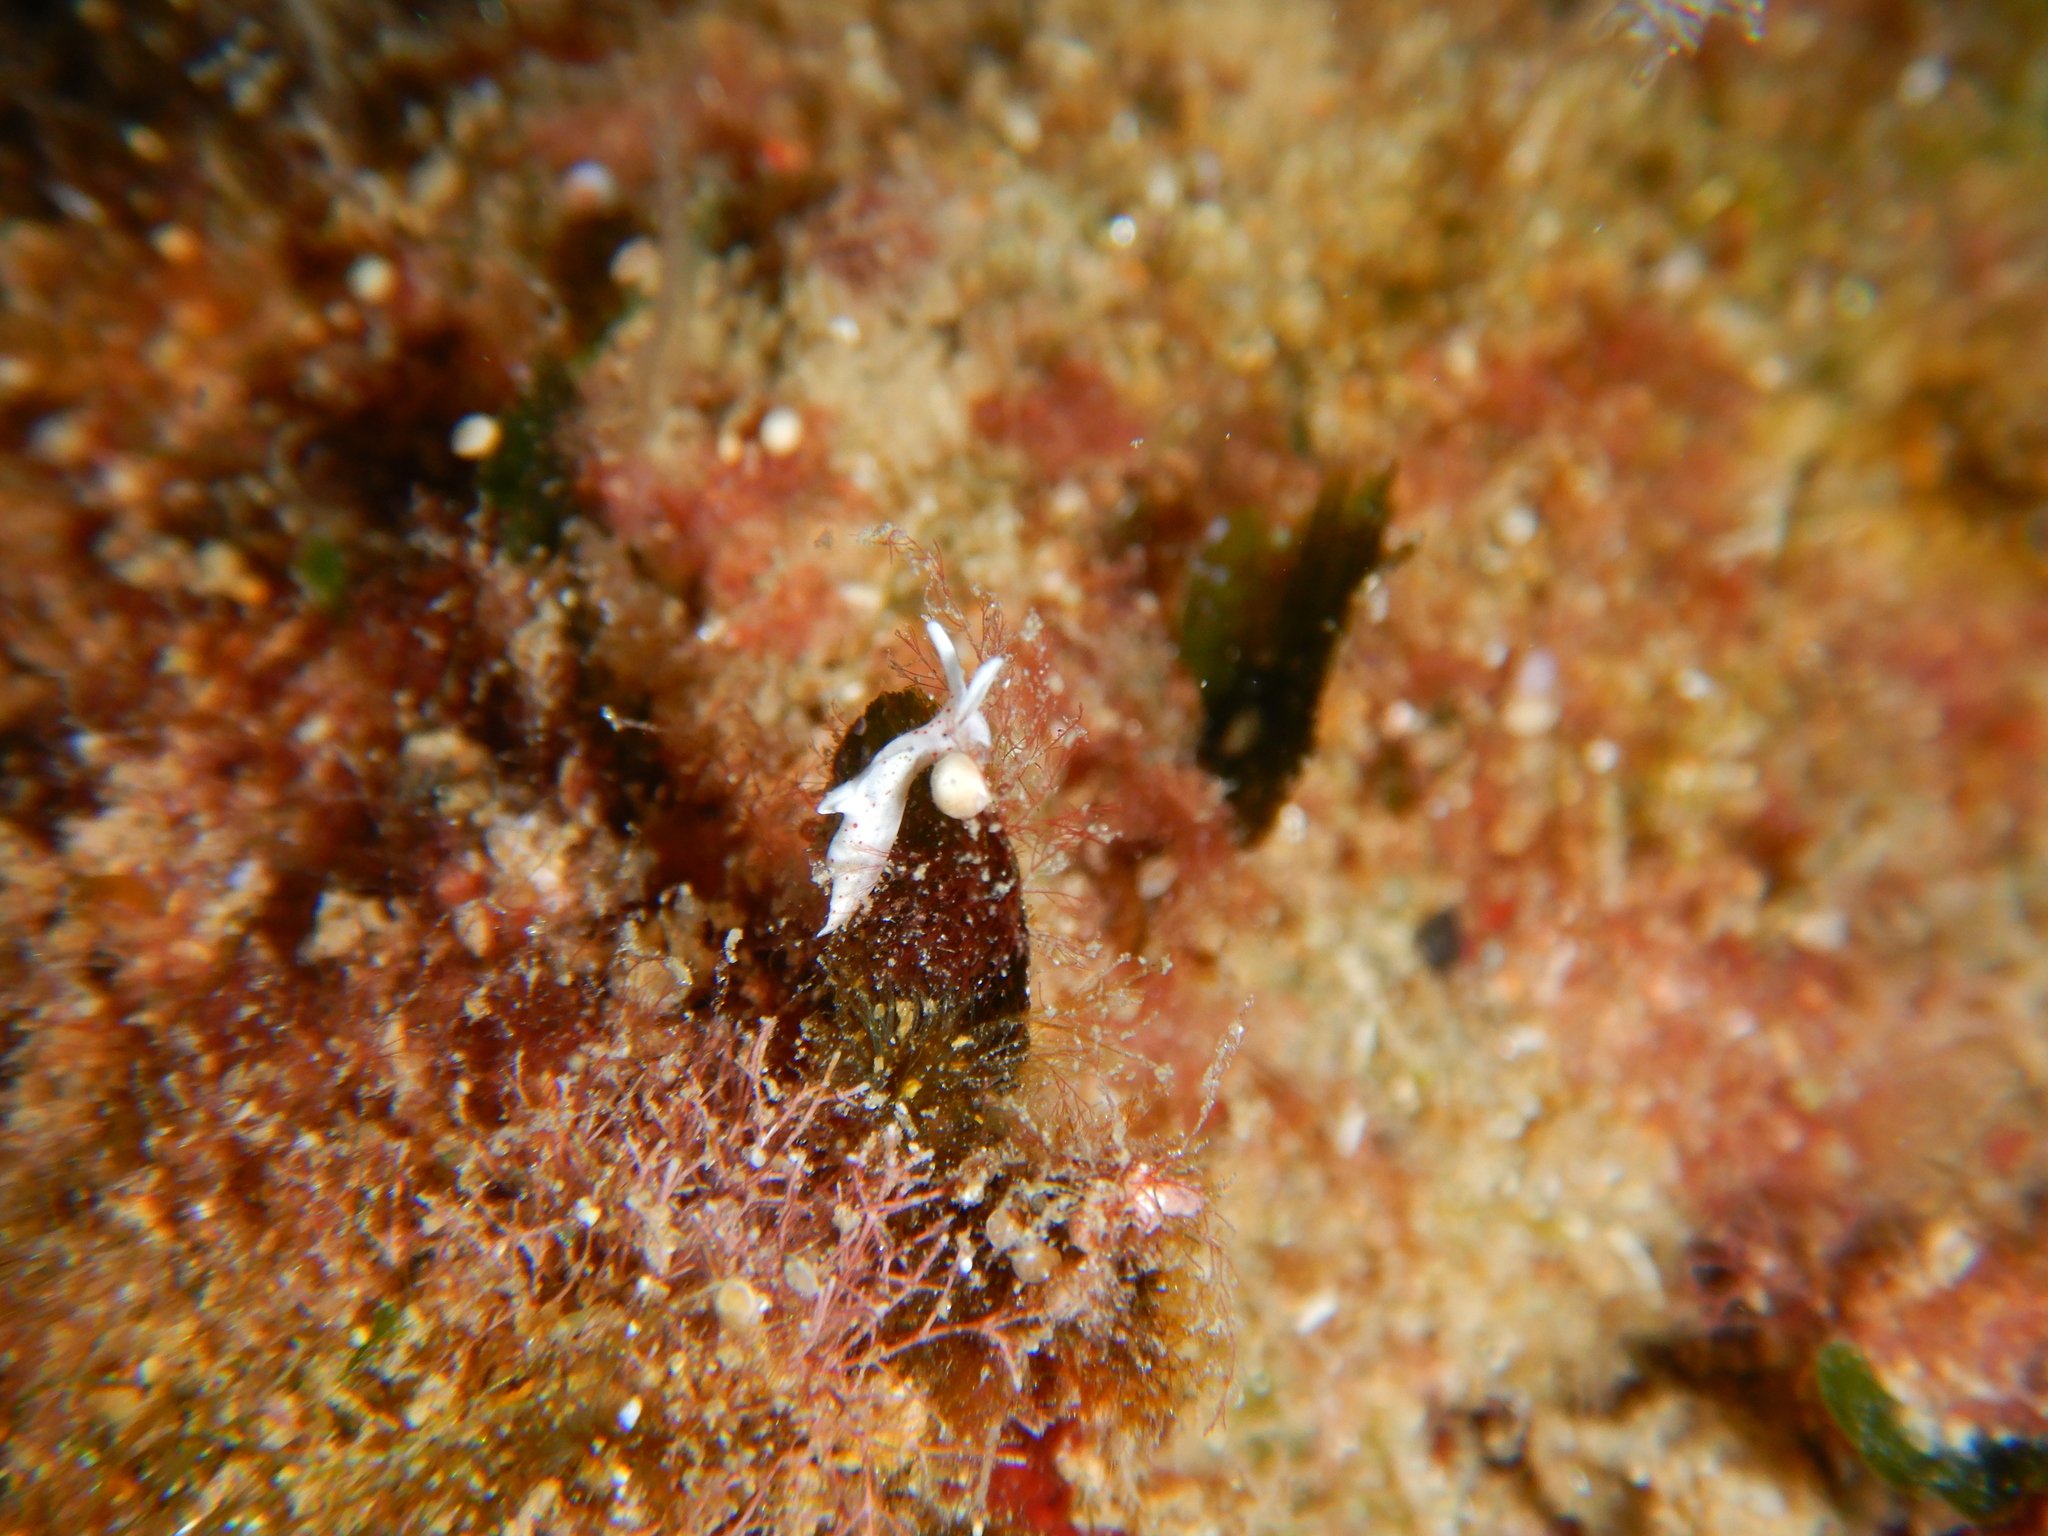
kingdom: Animalia
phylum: Mollusca
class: Gastropoda
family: Plakobranchidae
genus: Elysia
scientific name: Elysia timida
